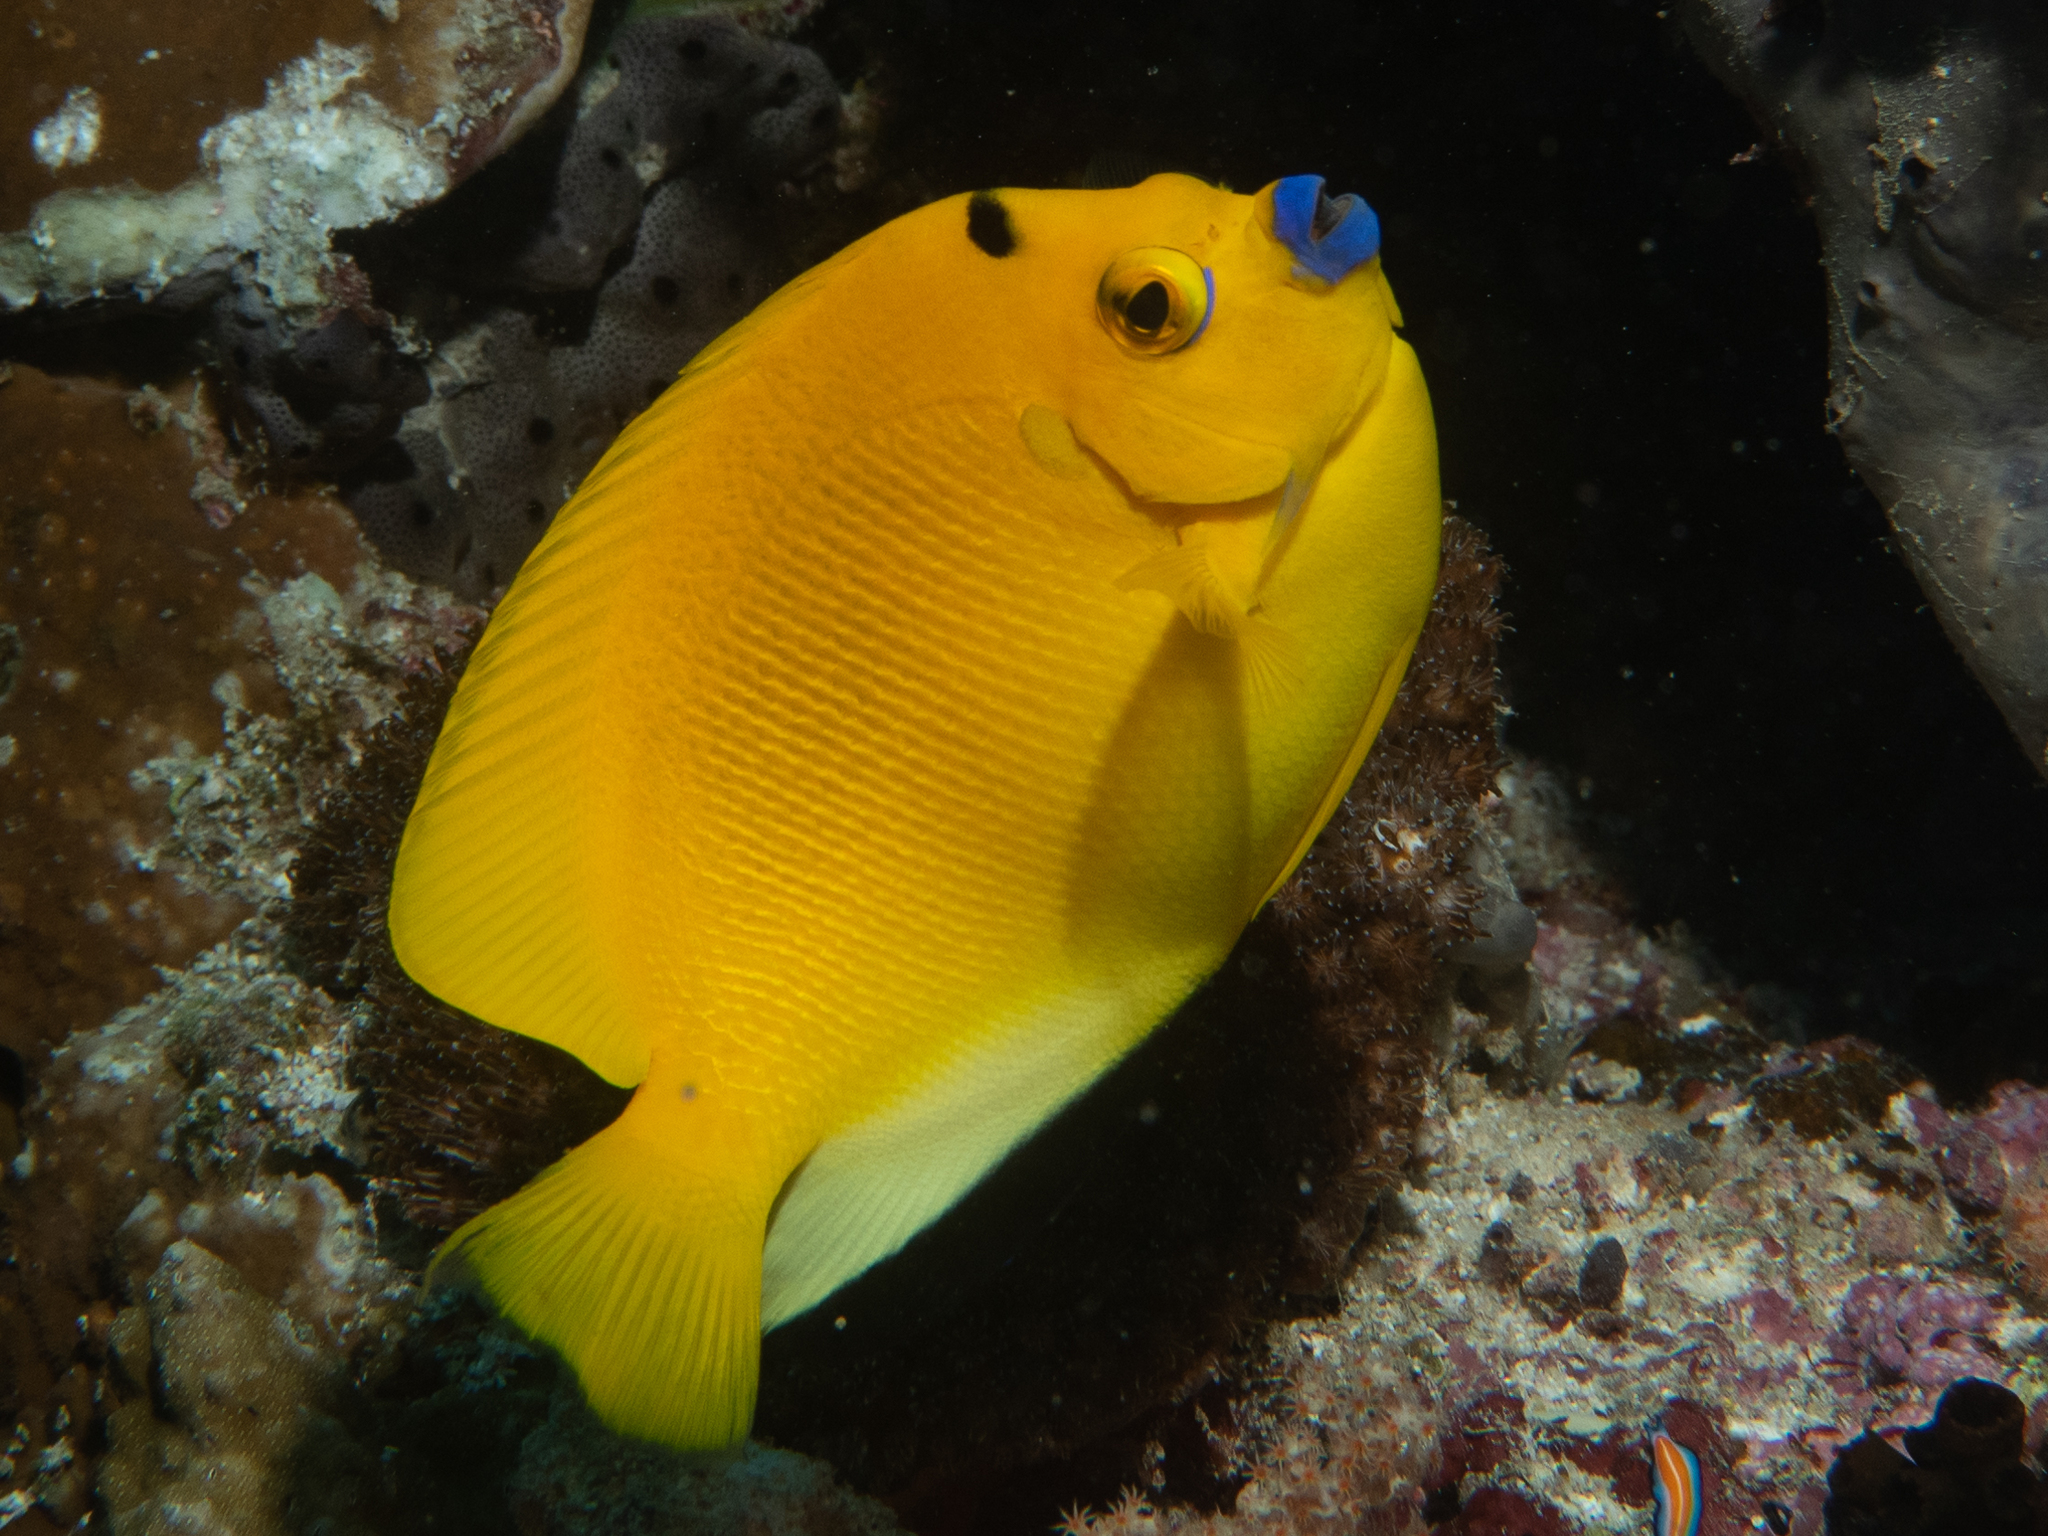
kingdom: Animalia
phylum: Chordata
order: Perciformes
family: Pomacanthidae
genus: Apolemichthys
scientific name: Apolemichthys trimaculatus
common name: Threespot angelfish
